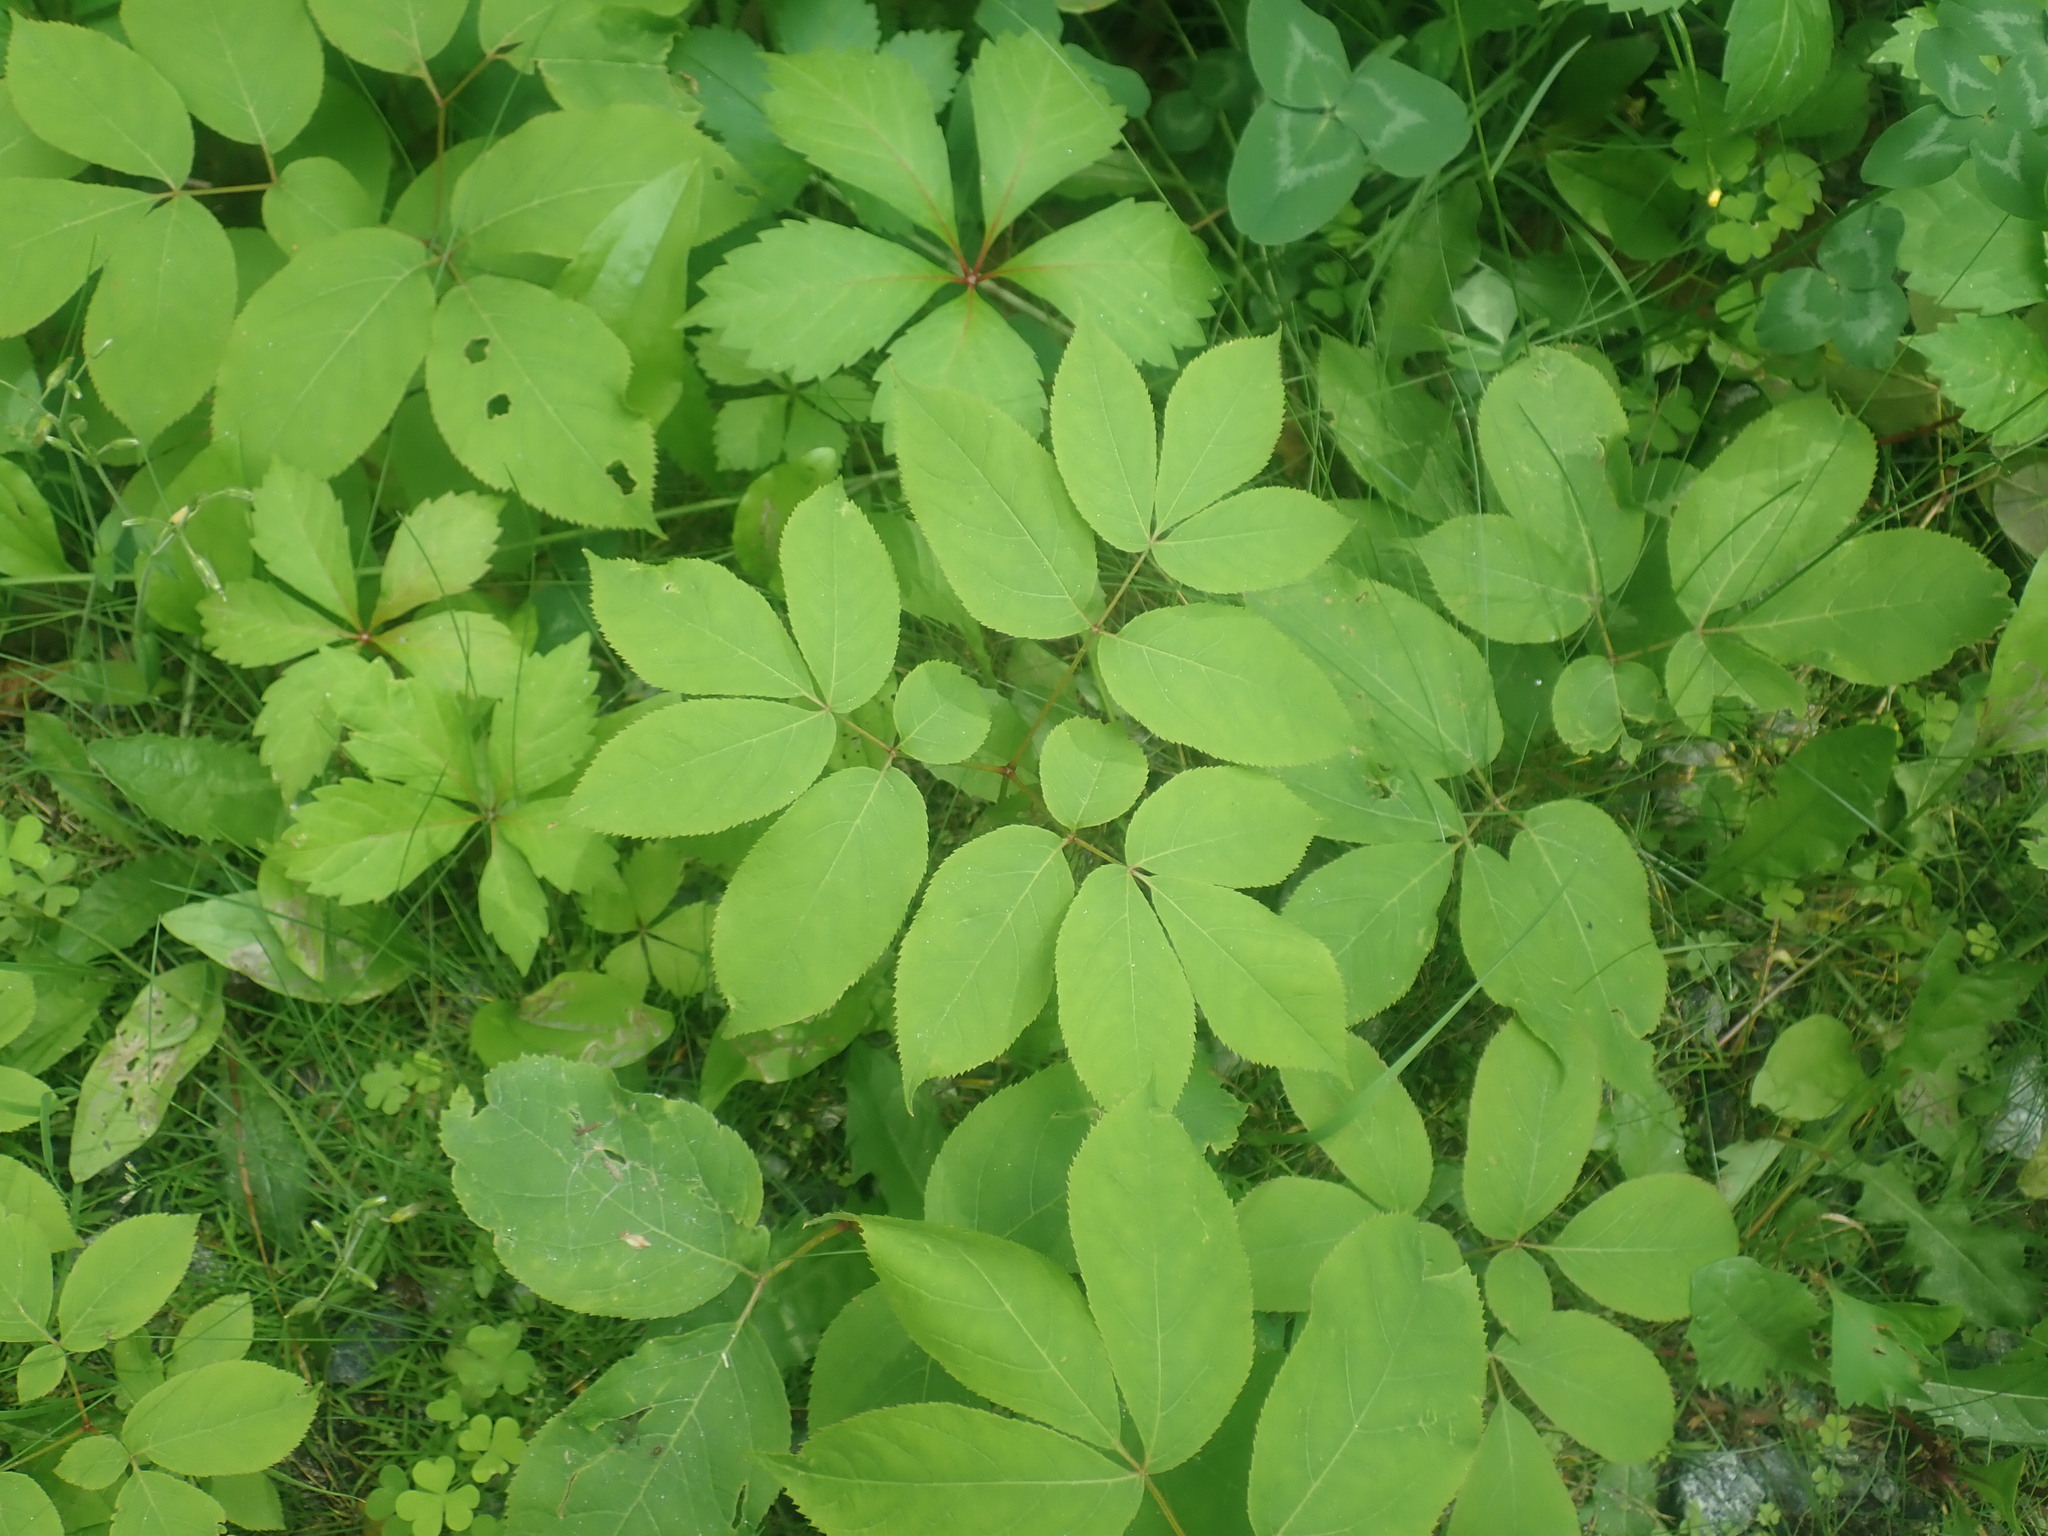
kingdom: Plantae
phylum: Tracheophyta
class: Magnoliopsida
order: Apiales
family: Araliaceae
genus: Aralia
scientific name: Aralia nudicaulis
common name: Wild sarsaparilla
